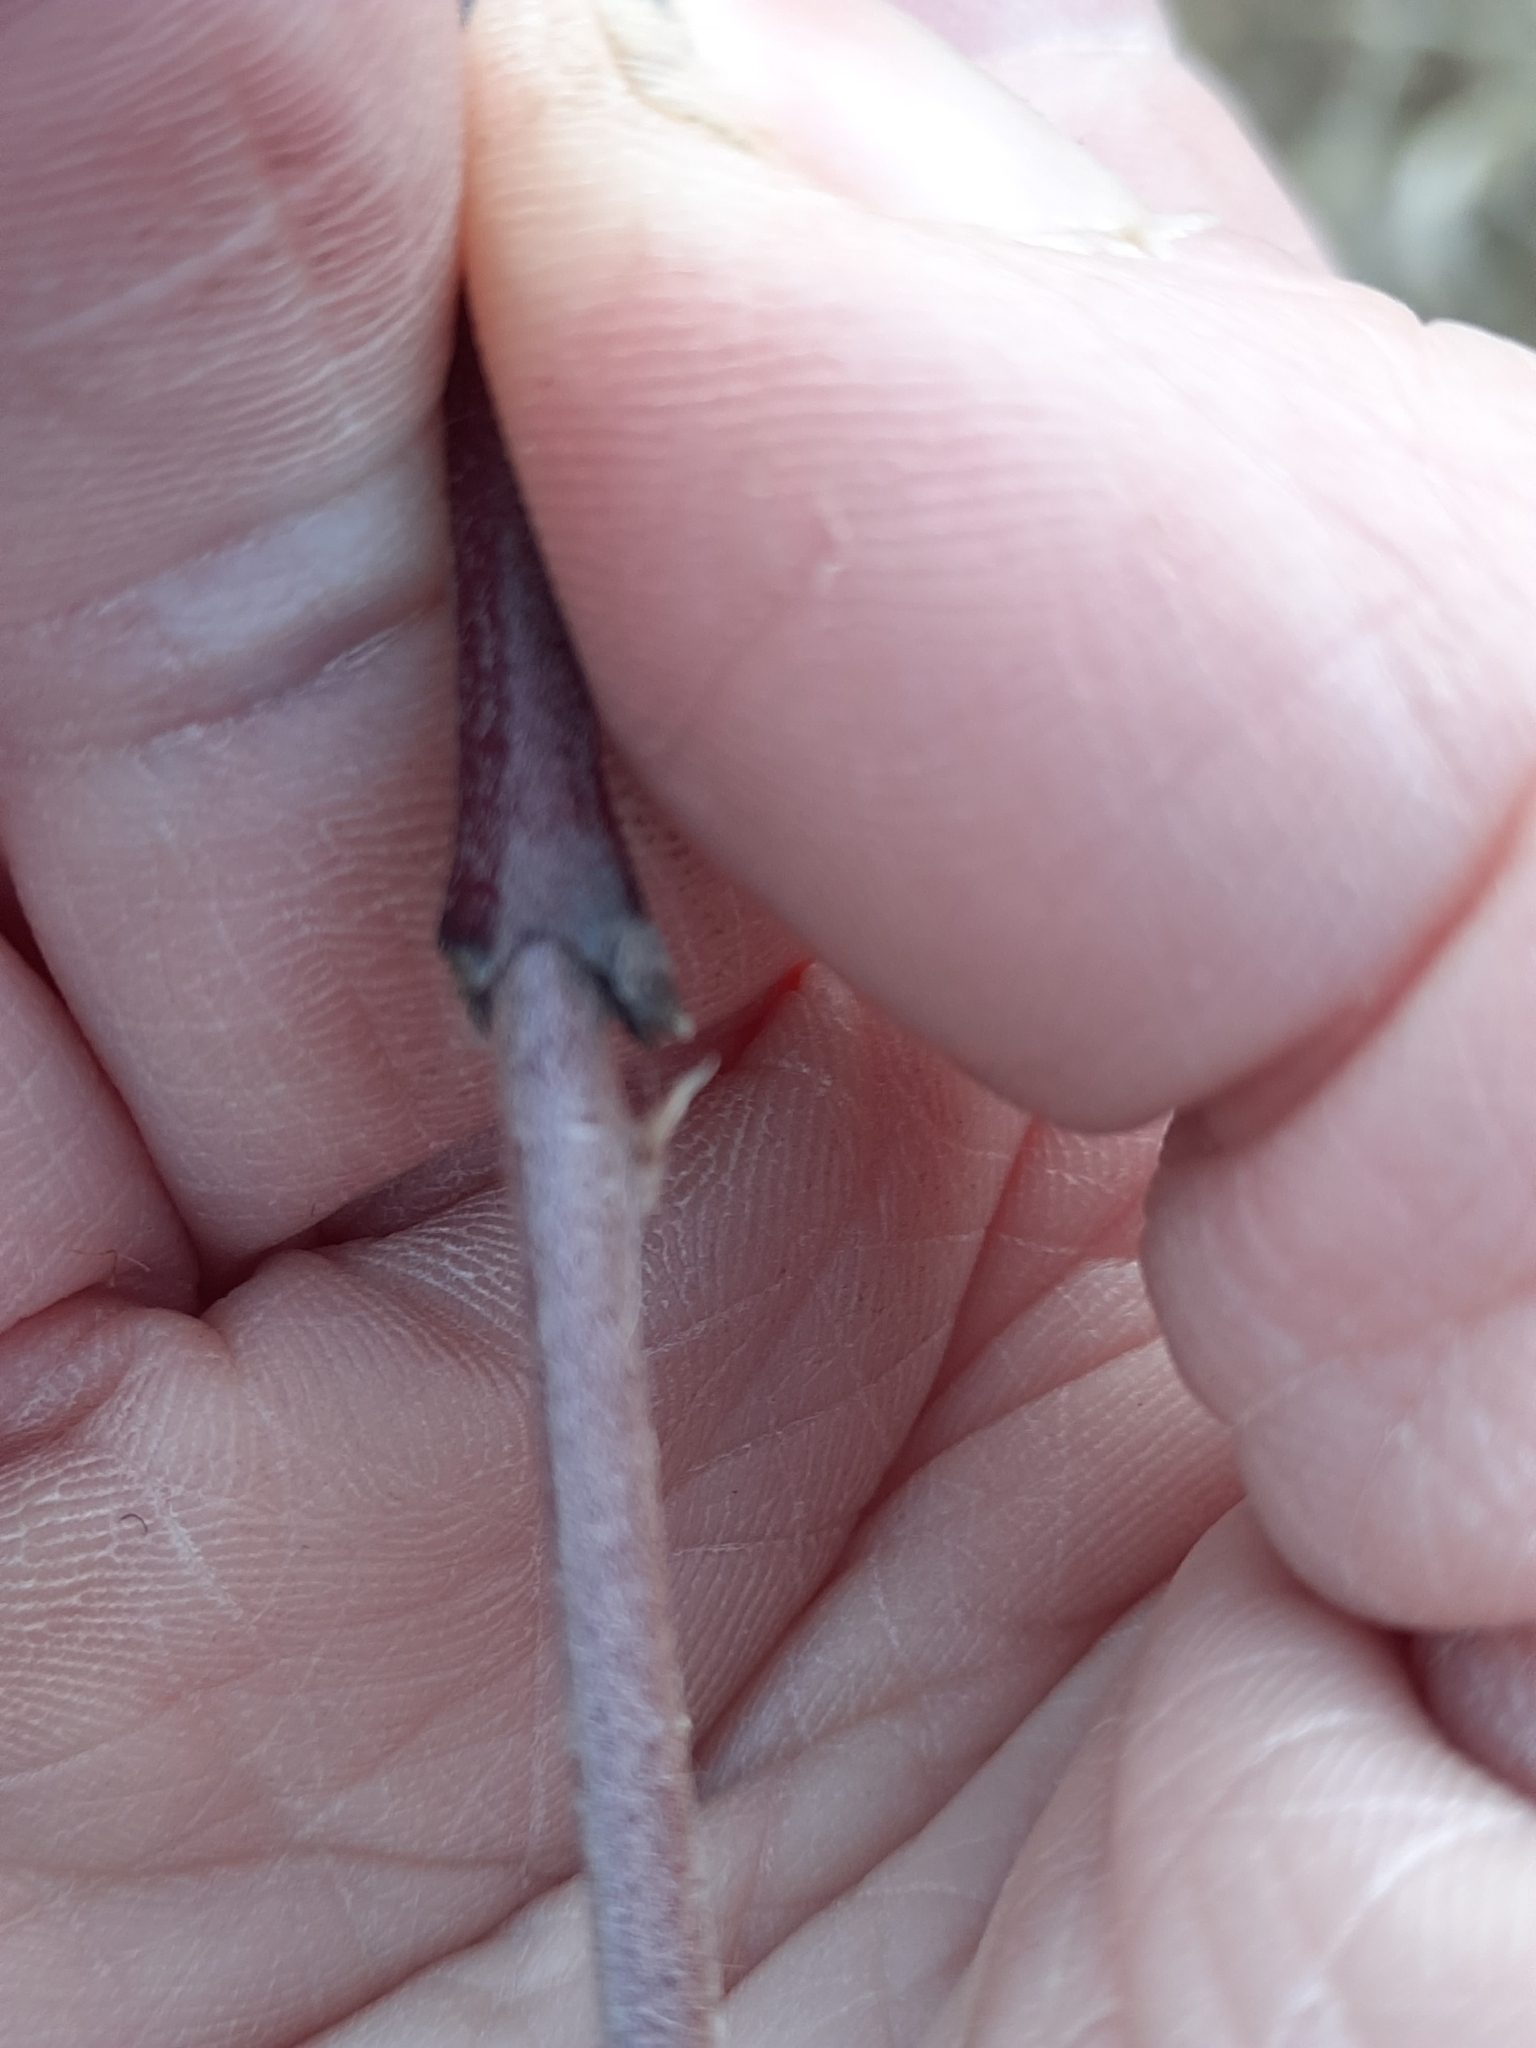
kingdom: Plantae
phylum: Tracheophyta
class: Magnoliopsida
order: Cornales
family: Cornaceae
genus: Cornus
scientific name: Cornus amomum
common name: Silky dogwood
